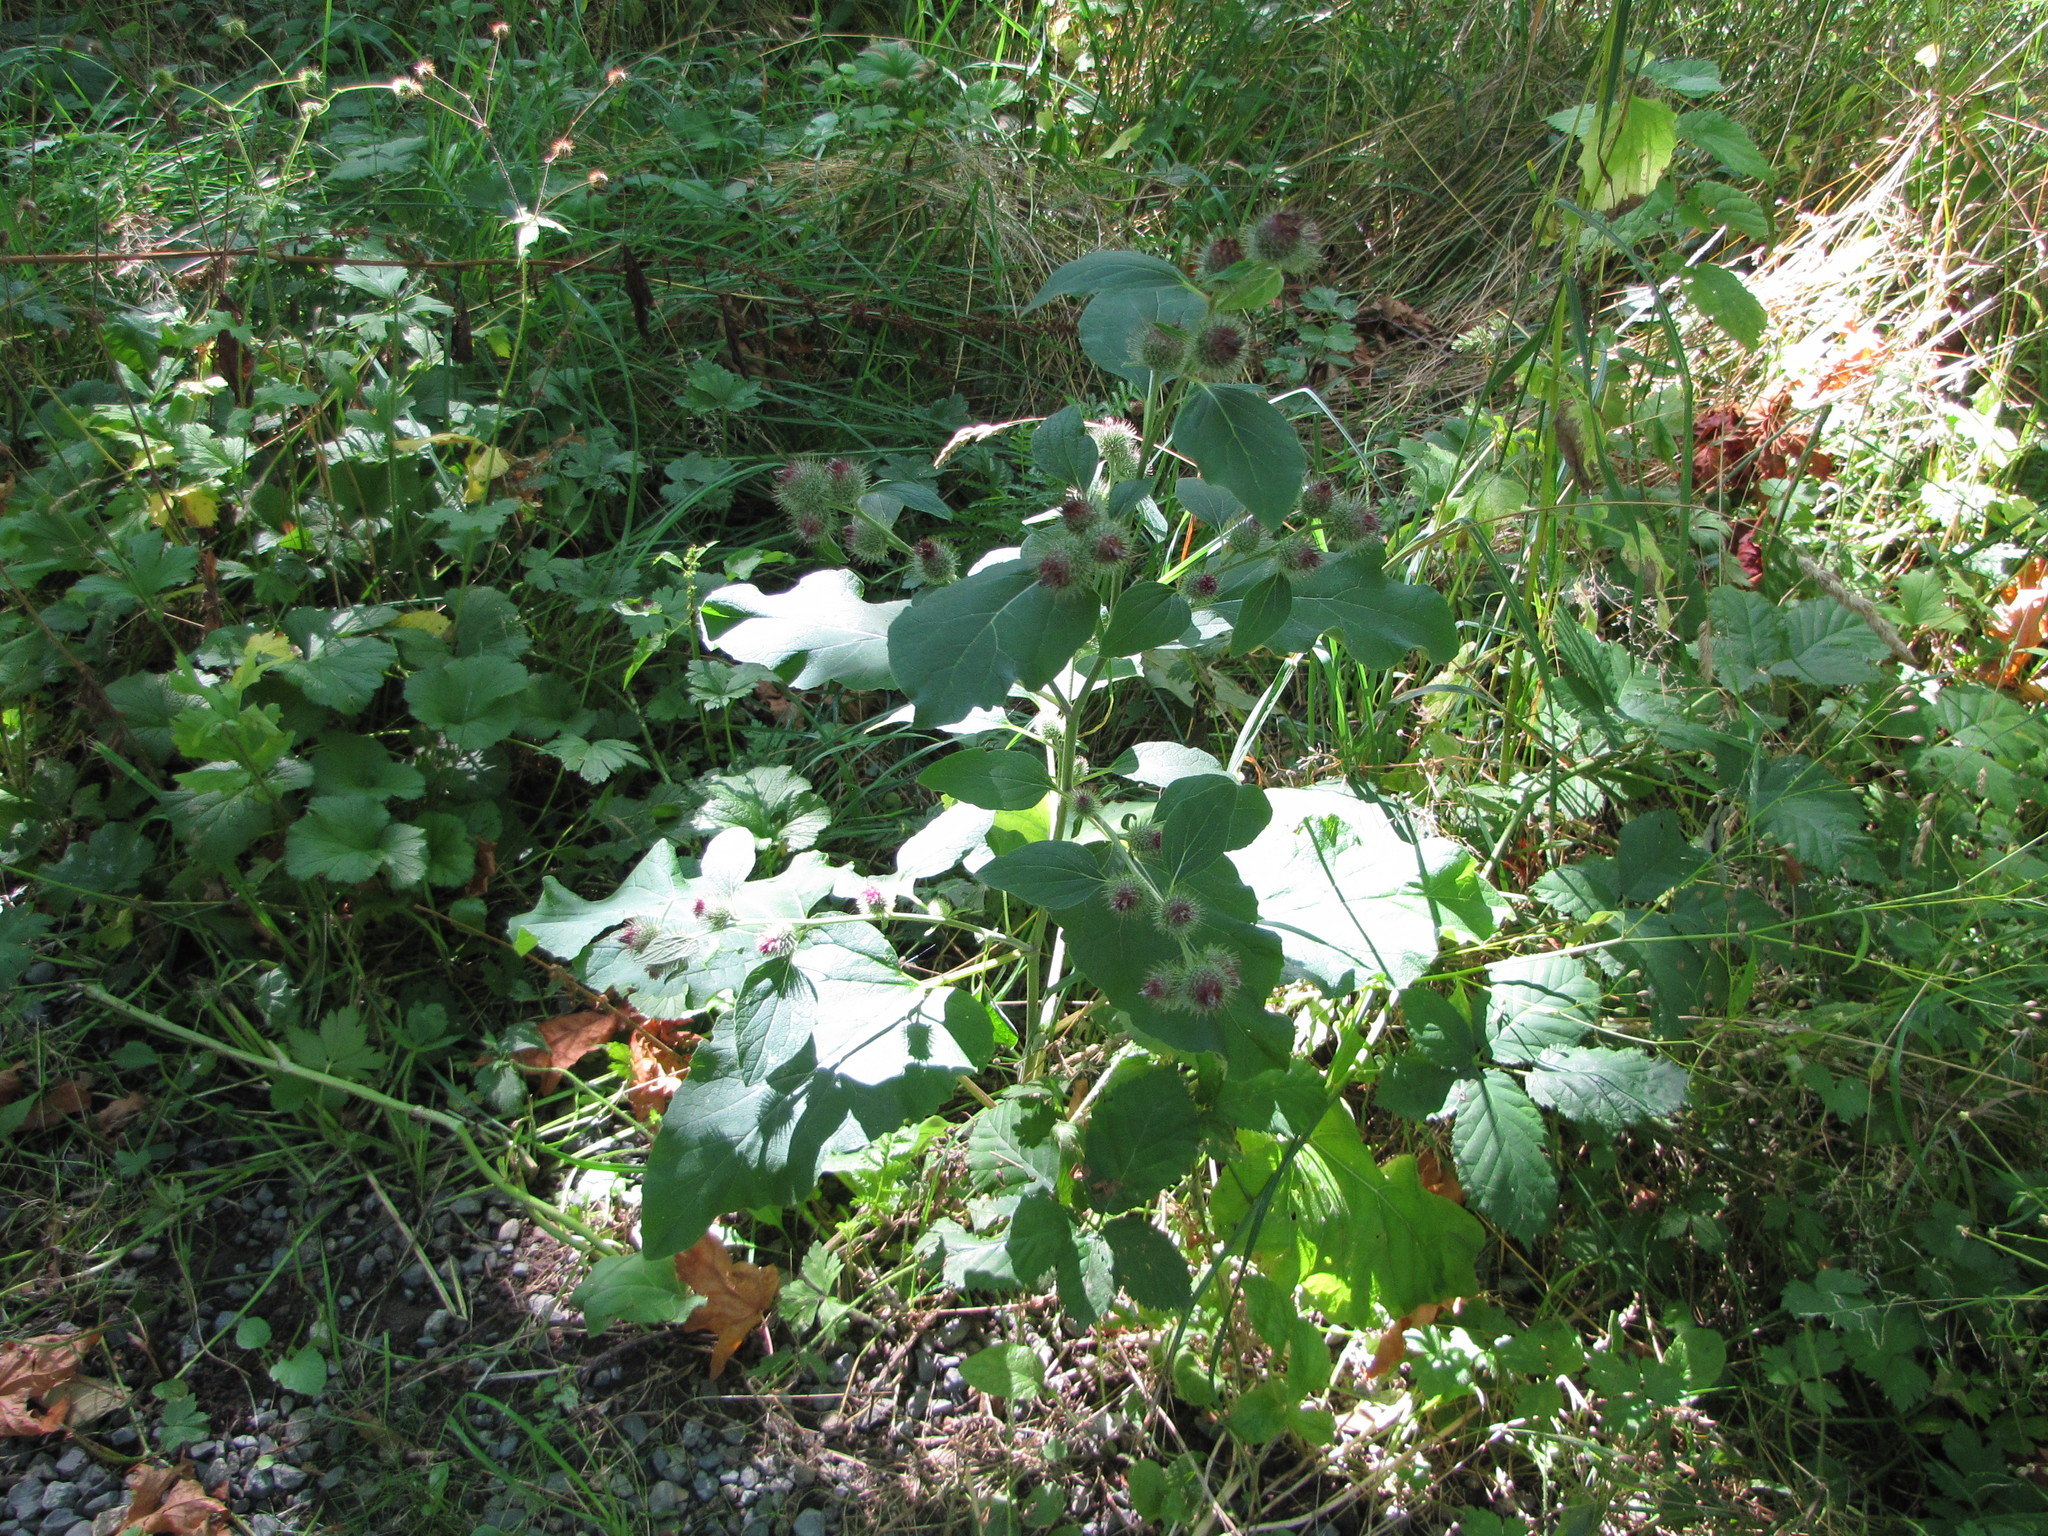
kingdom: Plantae
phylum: Tracheophyta
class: Magnoliopsida
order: Asterales
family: Asteraceae
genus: Arctium
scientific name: Arctium minus
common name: Lesser burdock
